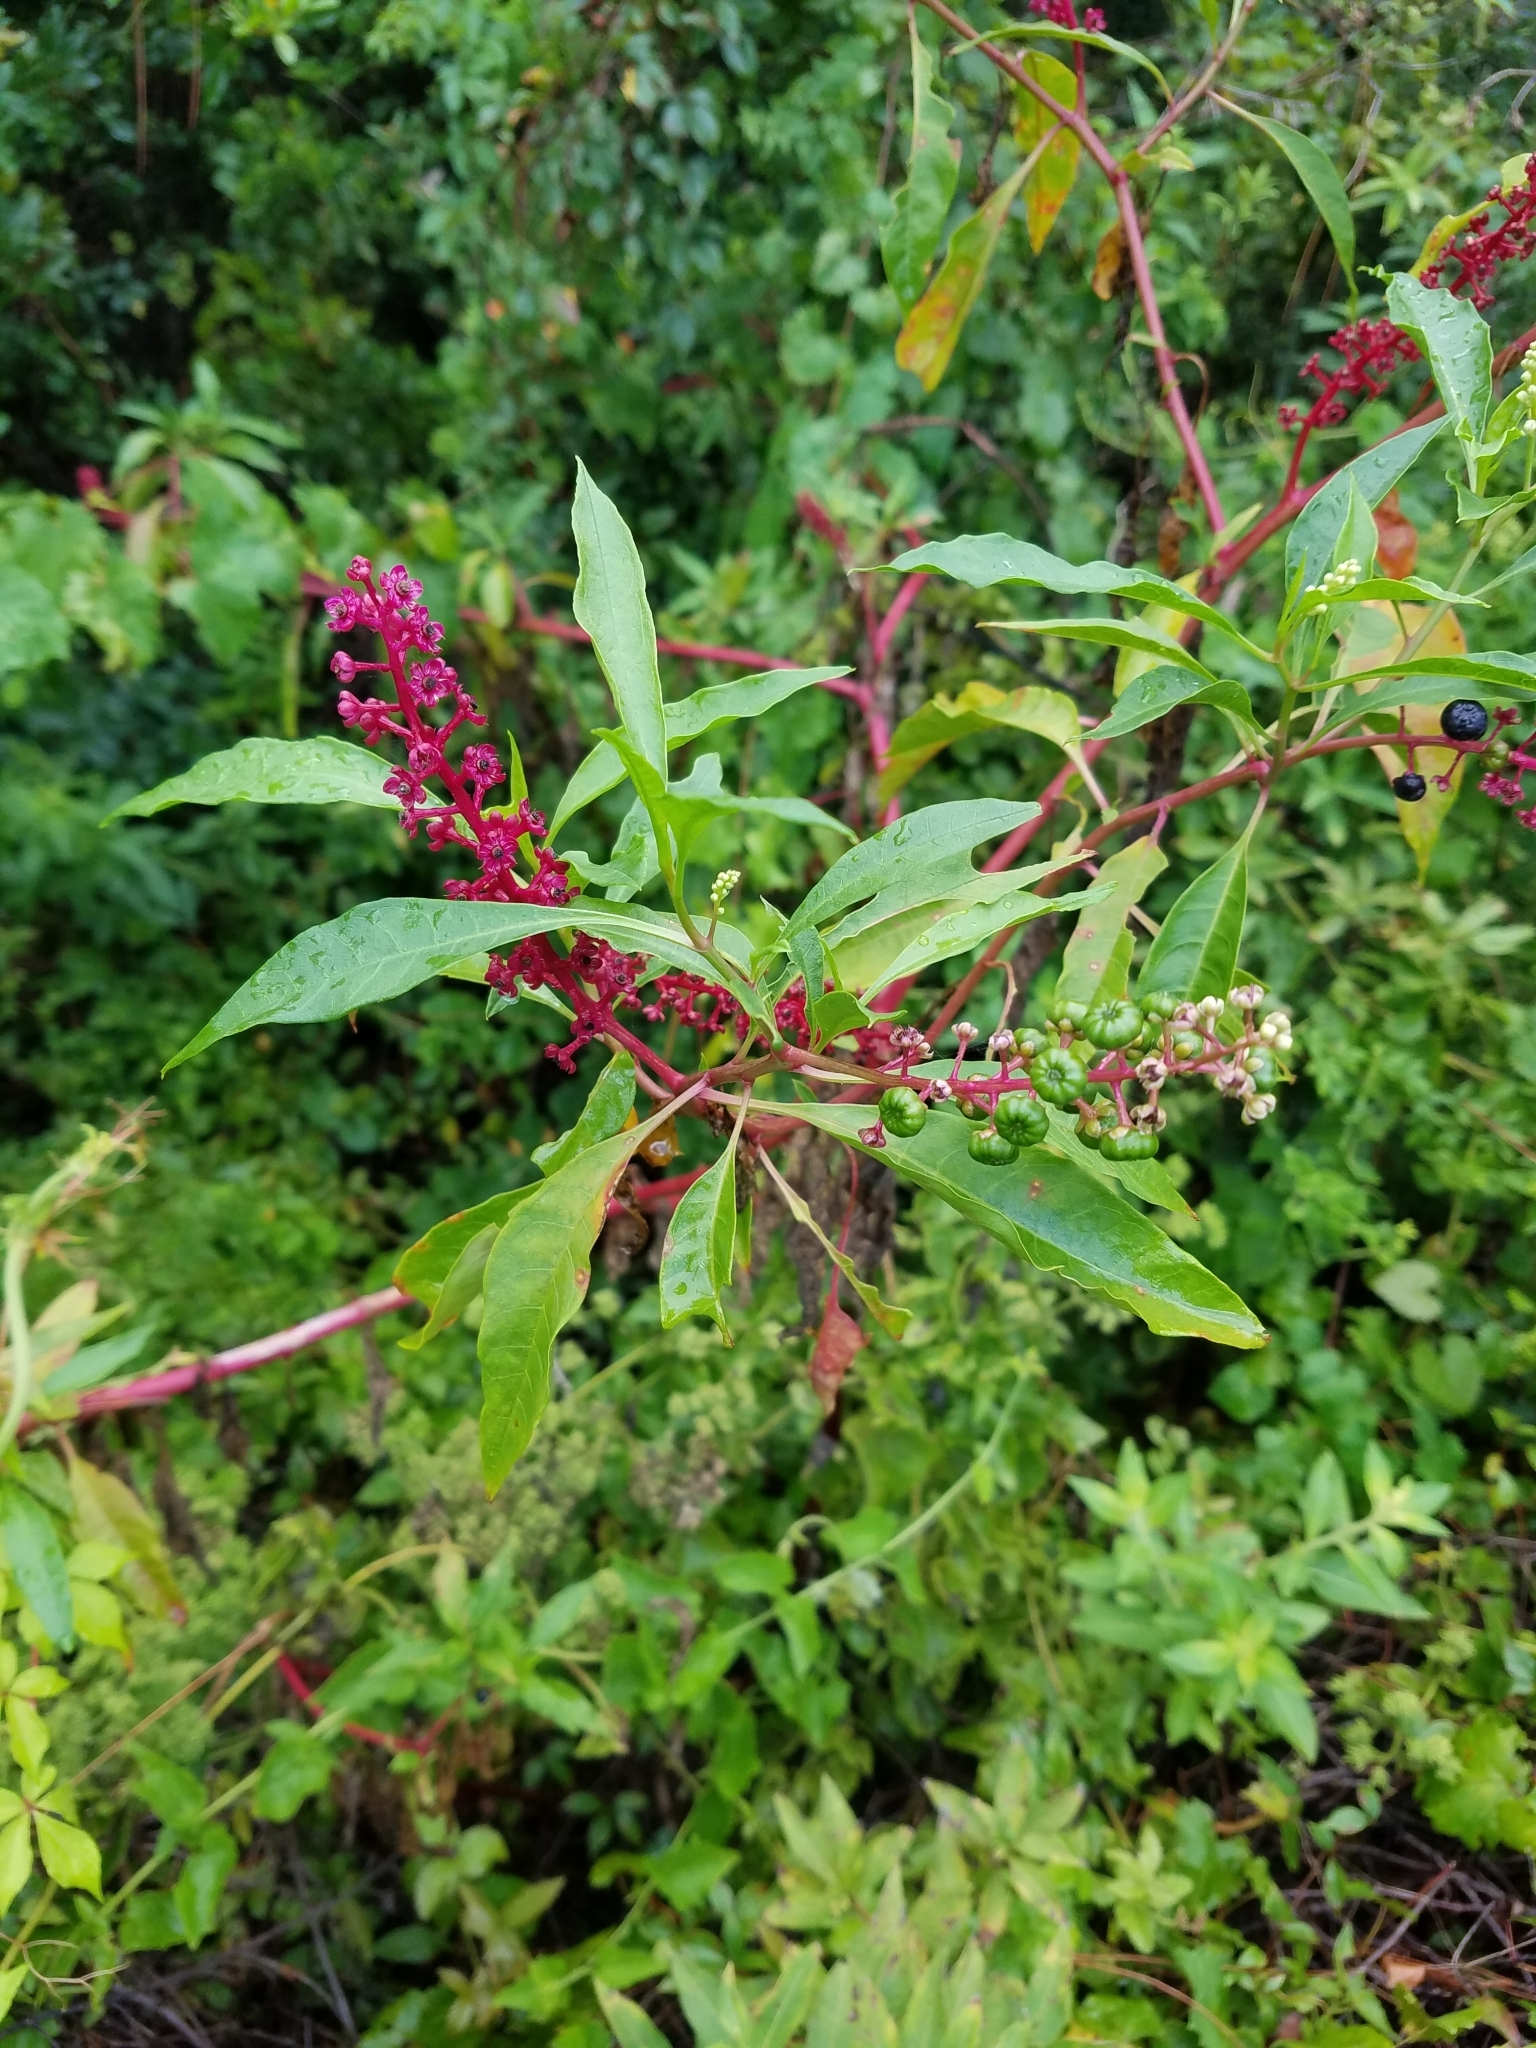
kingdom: Plantae
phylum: Tracheophyta
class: Magnoliopsida
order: Caryophyllales
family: Phytolaccaceae
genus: Phytolacca
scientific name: Phytolacca americana
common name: American pokeweed
